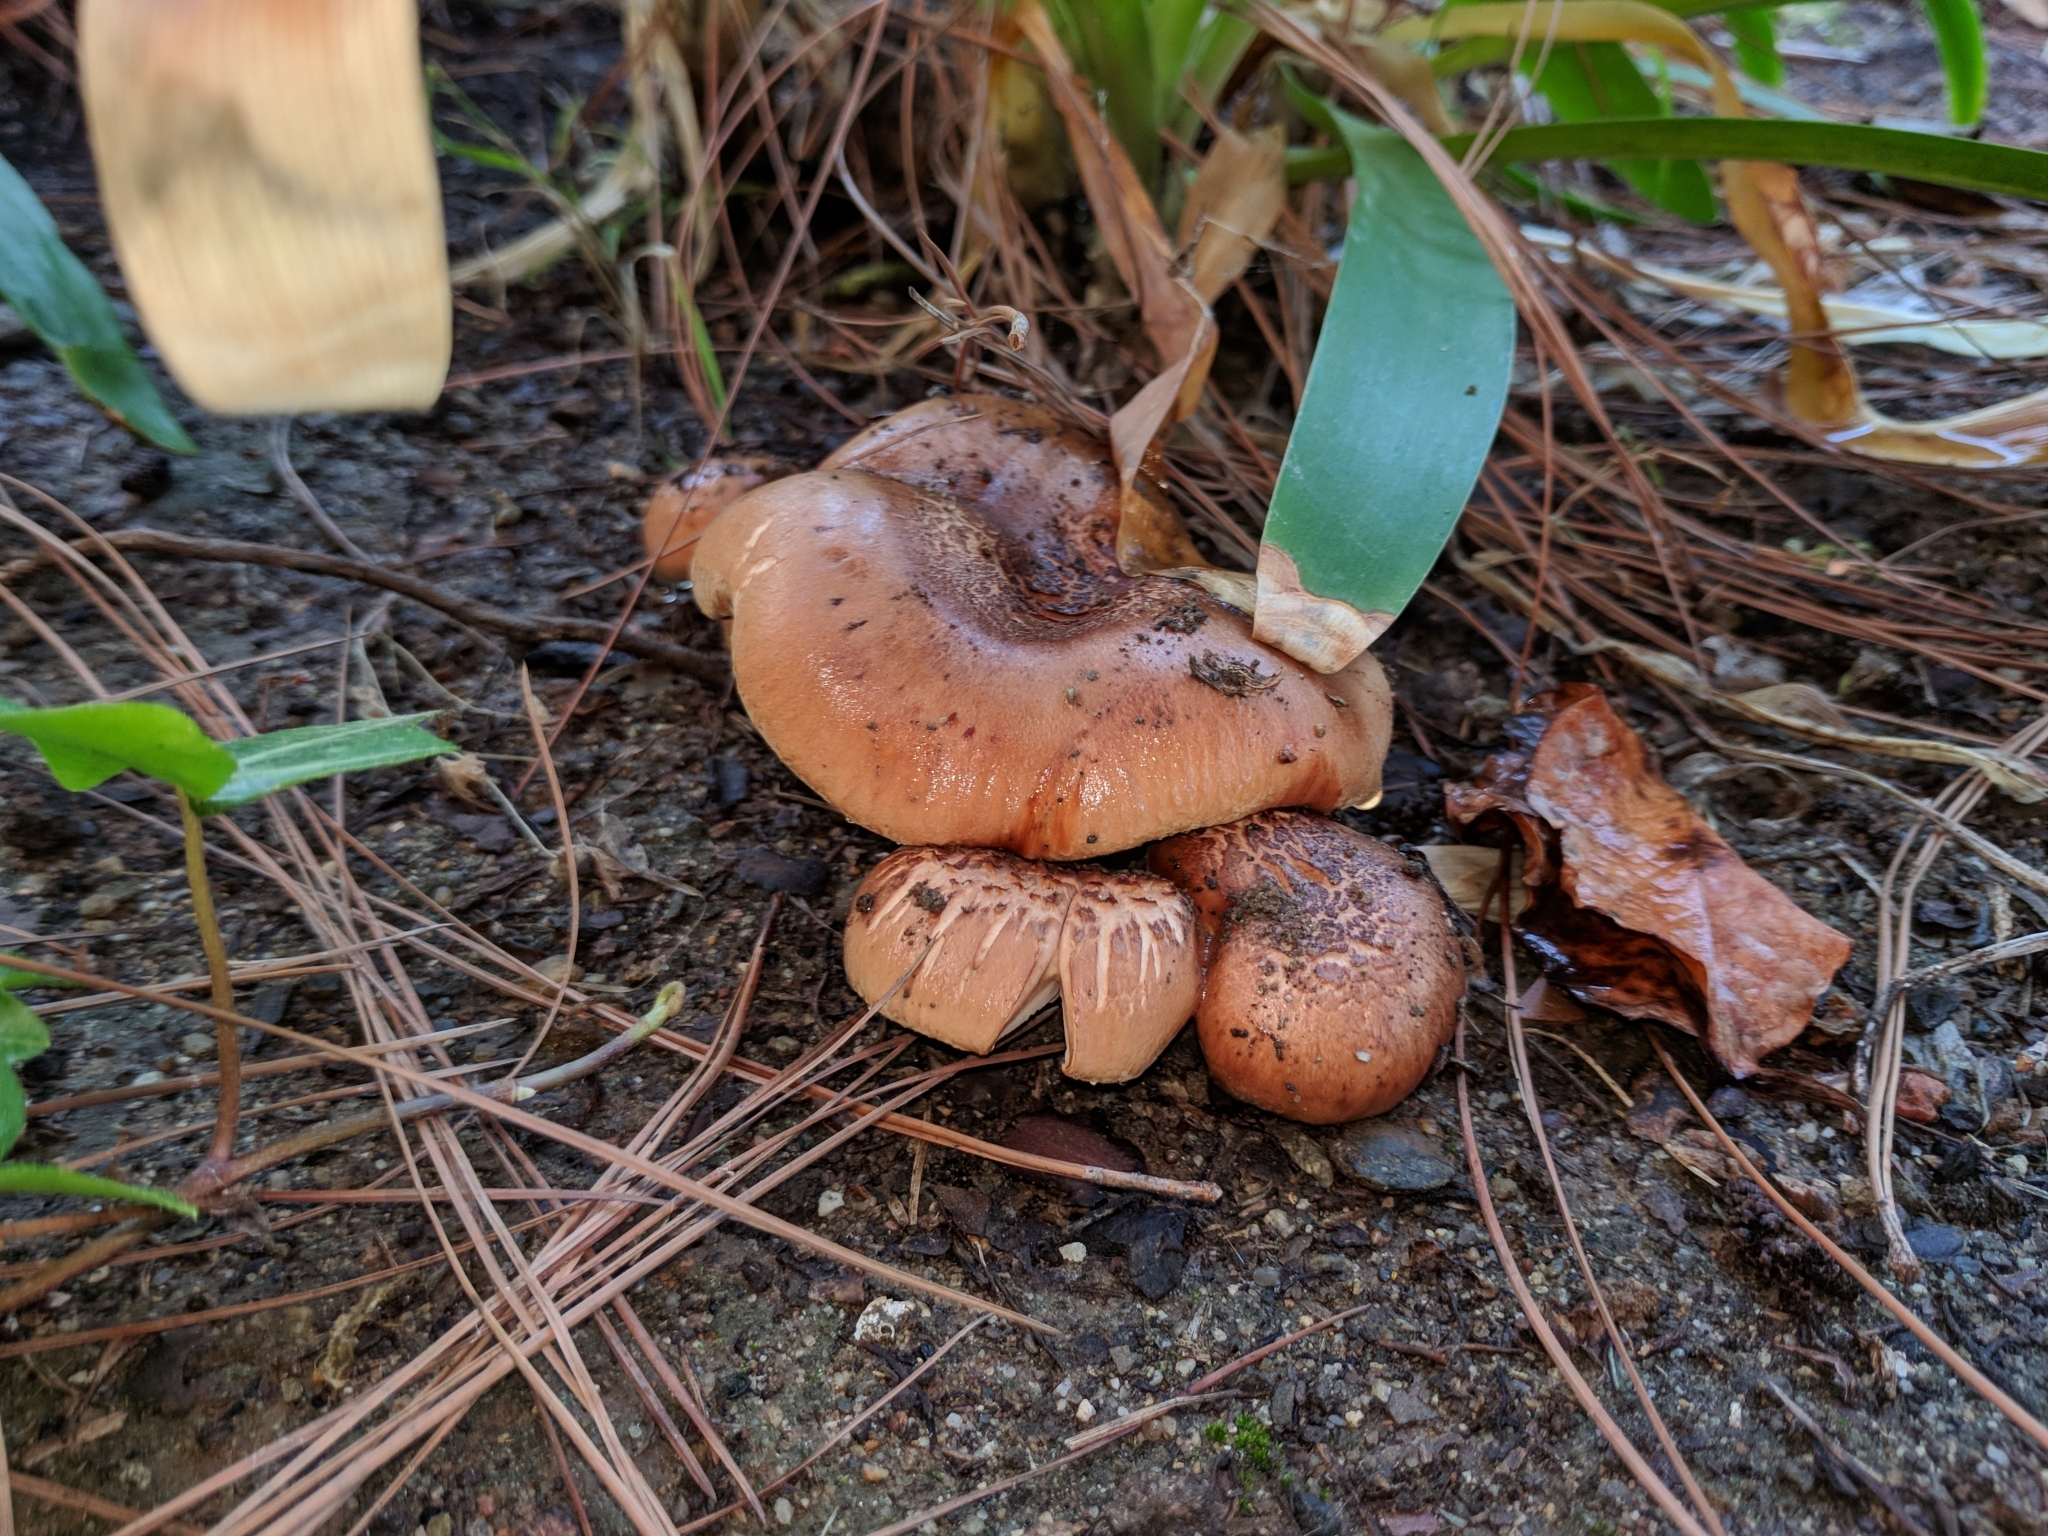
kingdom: Fungi
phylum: Basidiomycota
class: Agaricomycetes
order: Agaricales
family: Tricholomataceae
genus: Tricholoma
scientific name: Tricholoma fracticum
